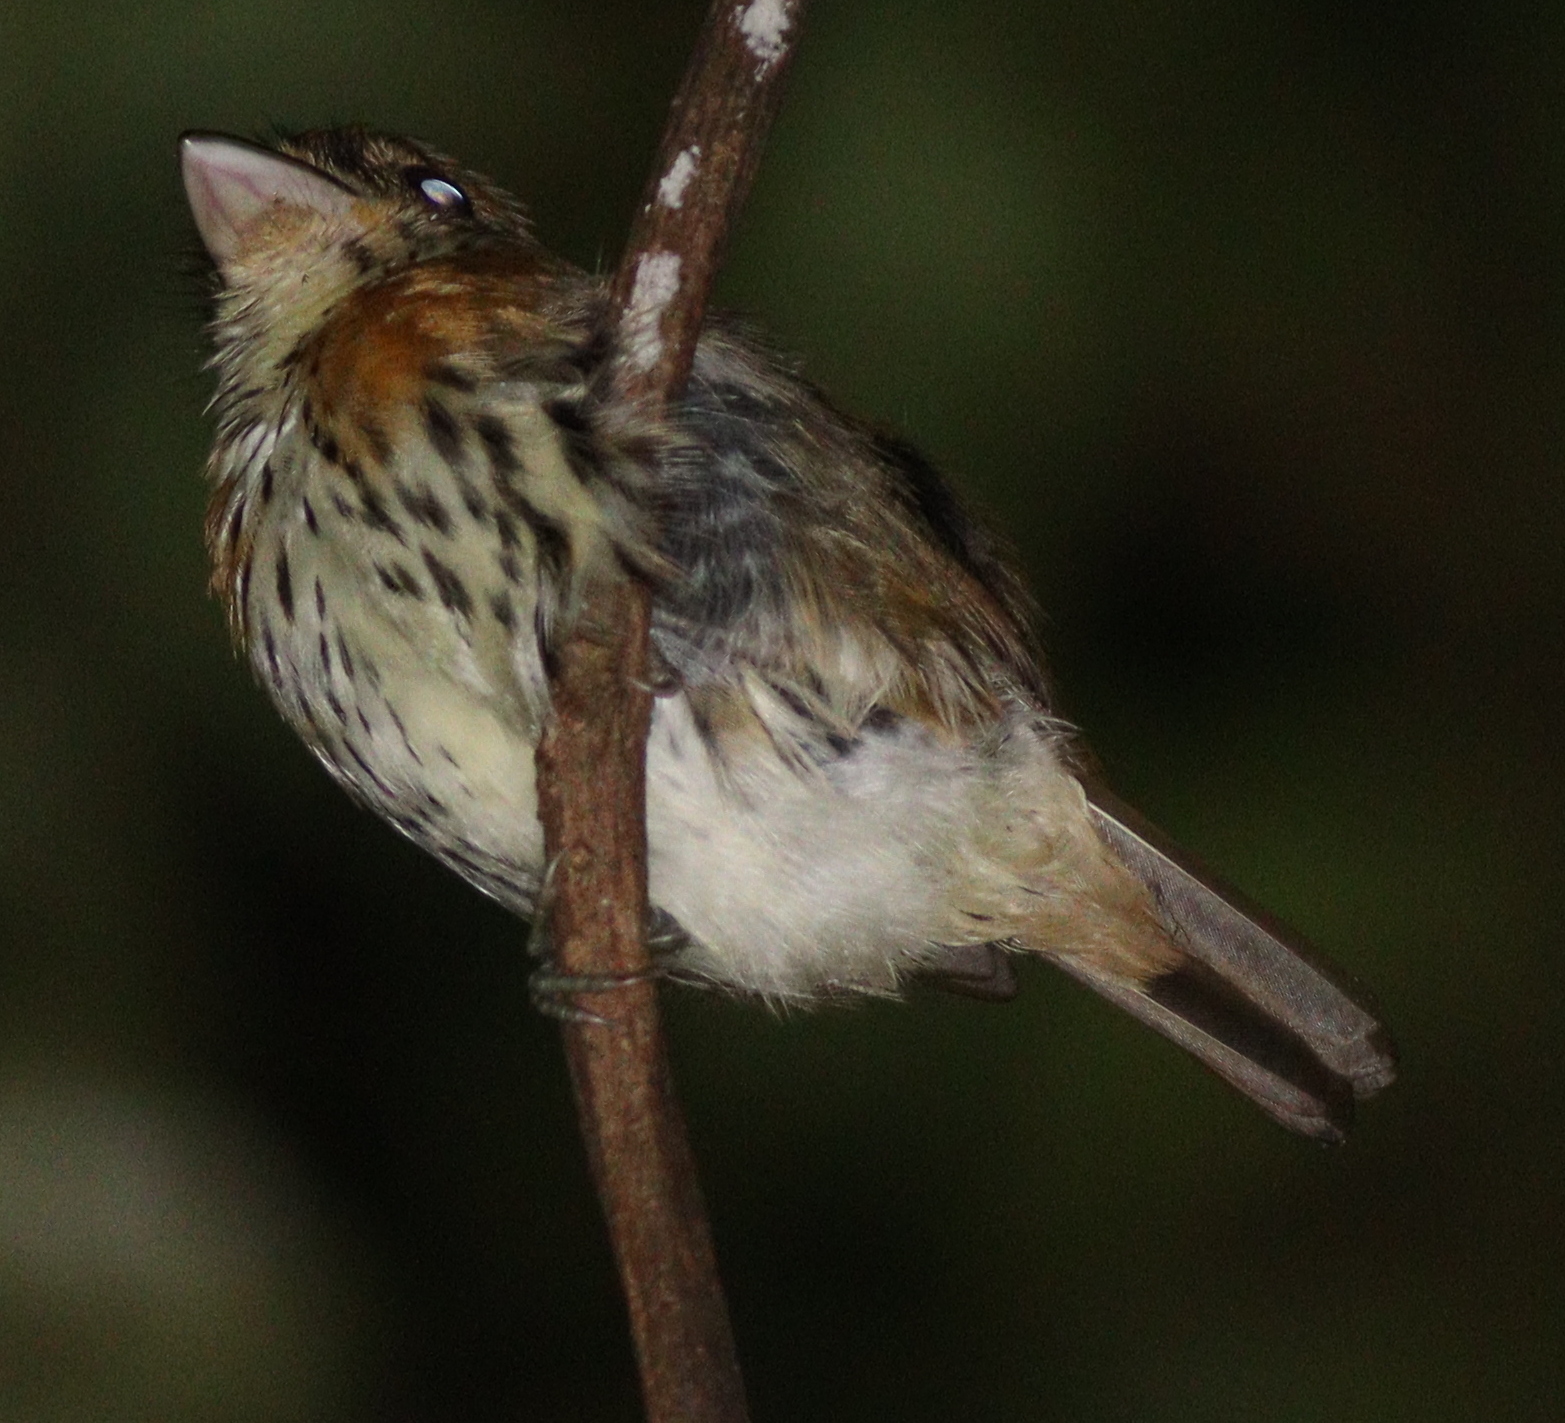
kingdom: Animalia
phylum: Chordata
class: Aves
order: Passeriformes
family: Eurylaimidae
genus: Smithornis
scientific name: Smithornis rufolateralis
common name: Rufous-sided broadbill
